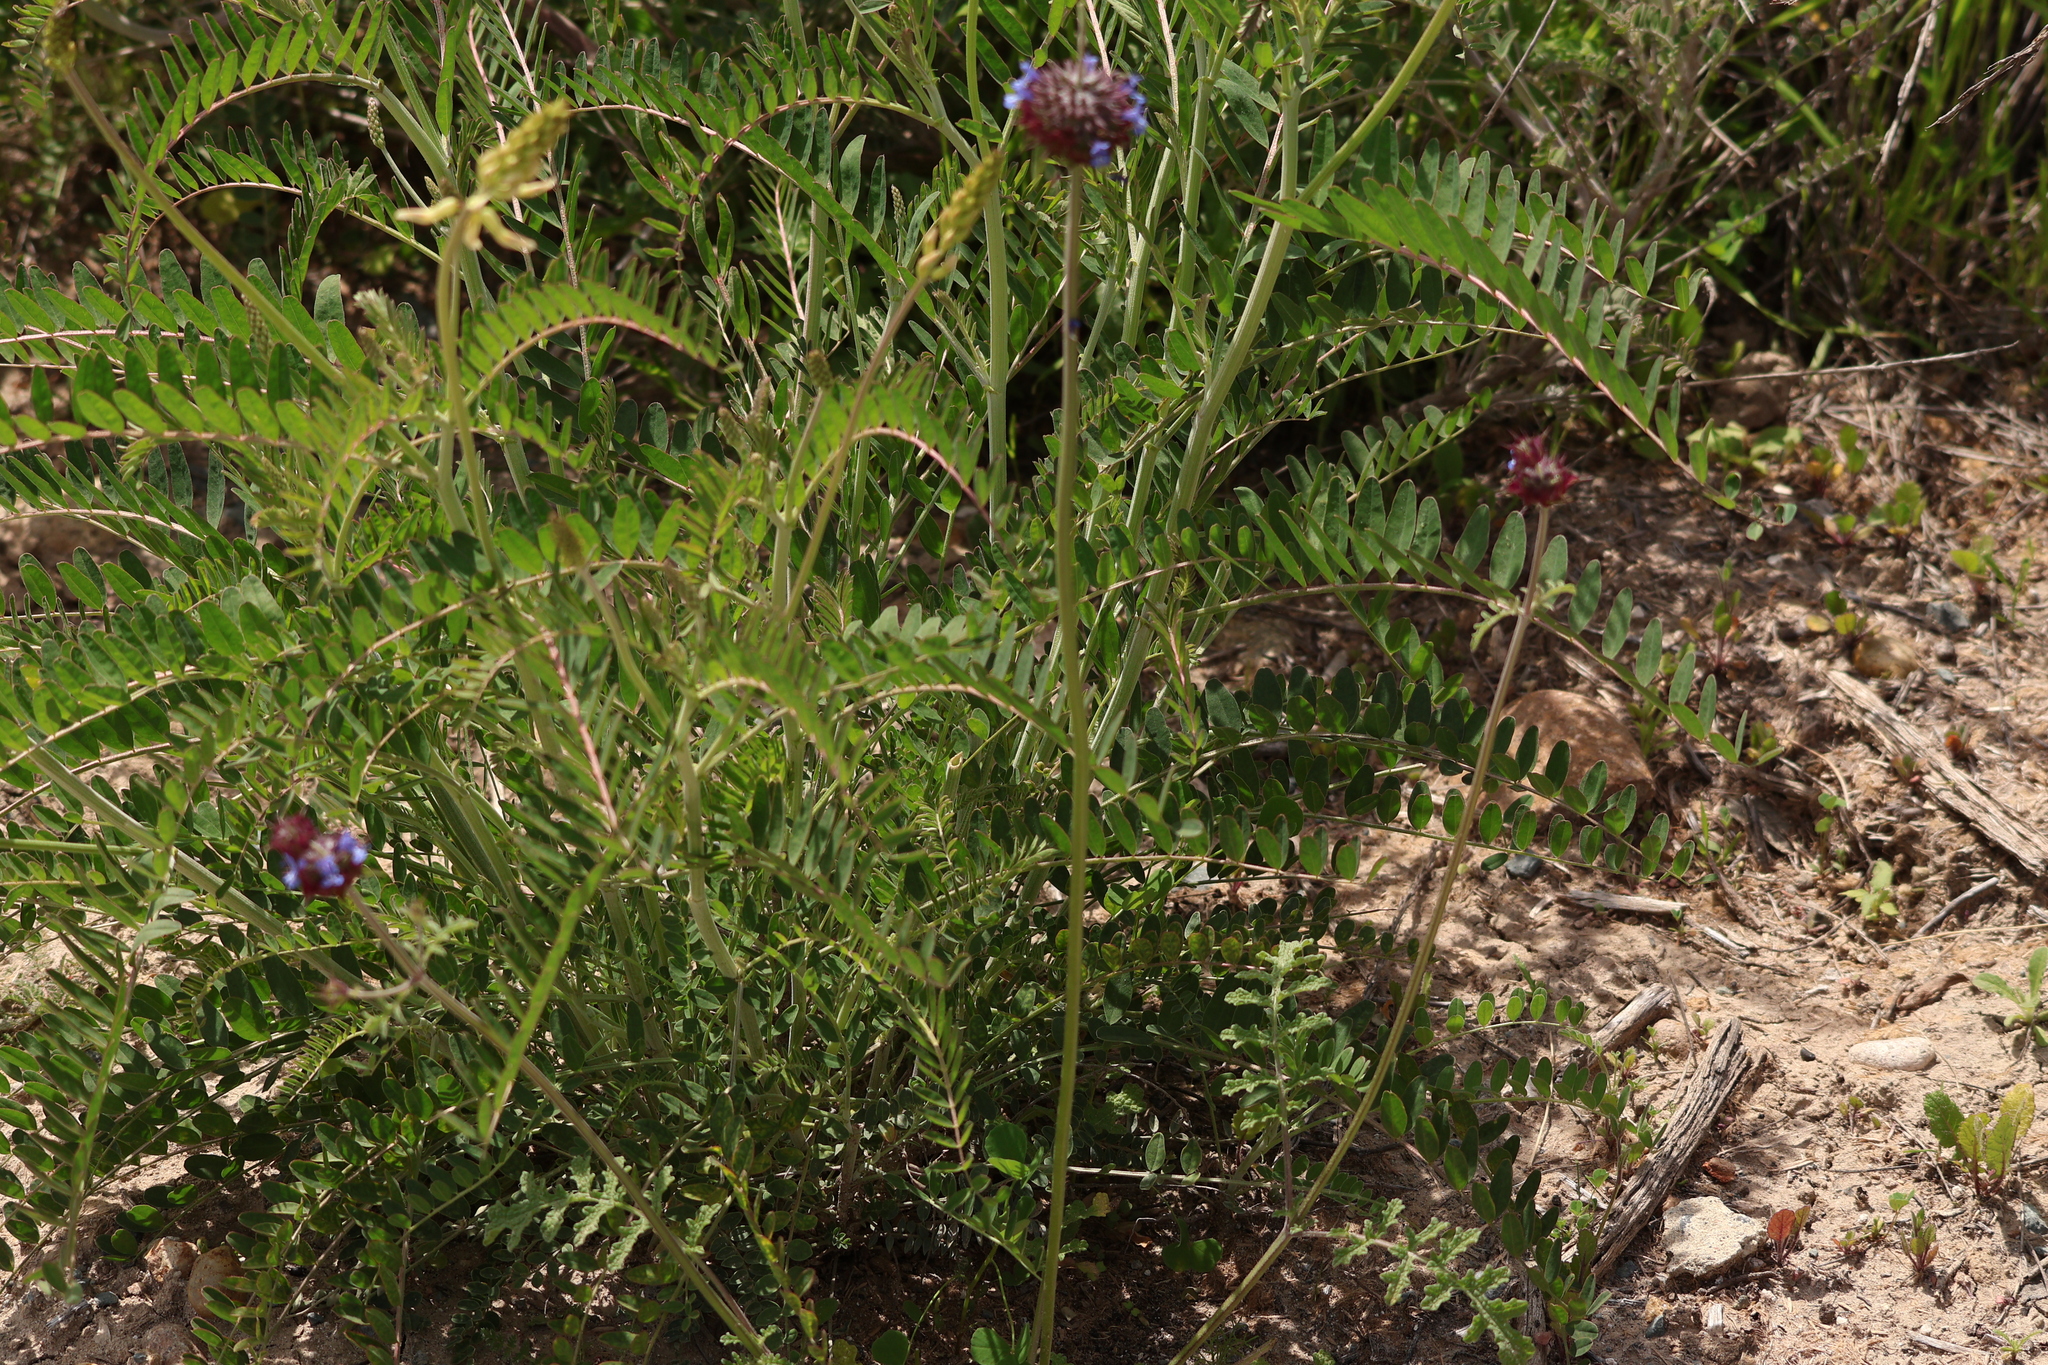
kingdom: Plantae
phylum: Tracheophyta
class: Magnoliopsida
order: Lamiales
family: Lamiaceae
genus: Salvia
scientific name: Salvia columbariae
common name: Chia
